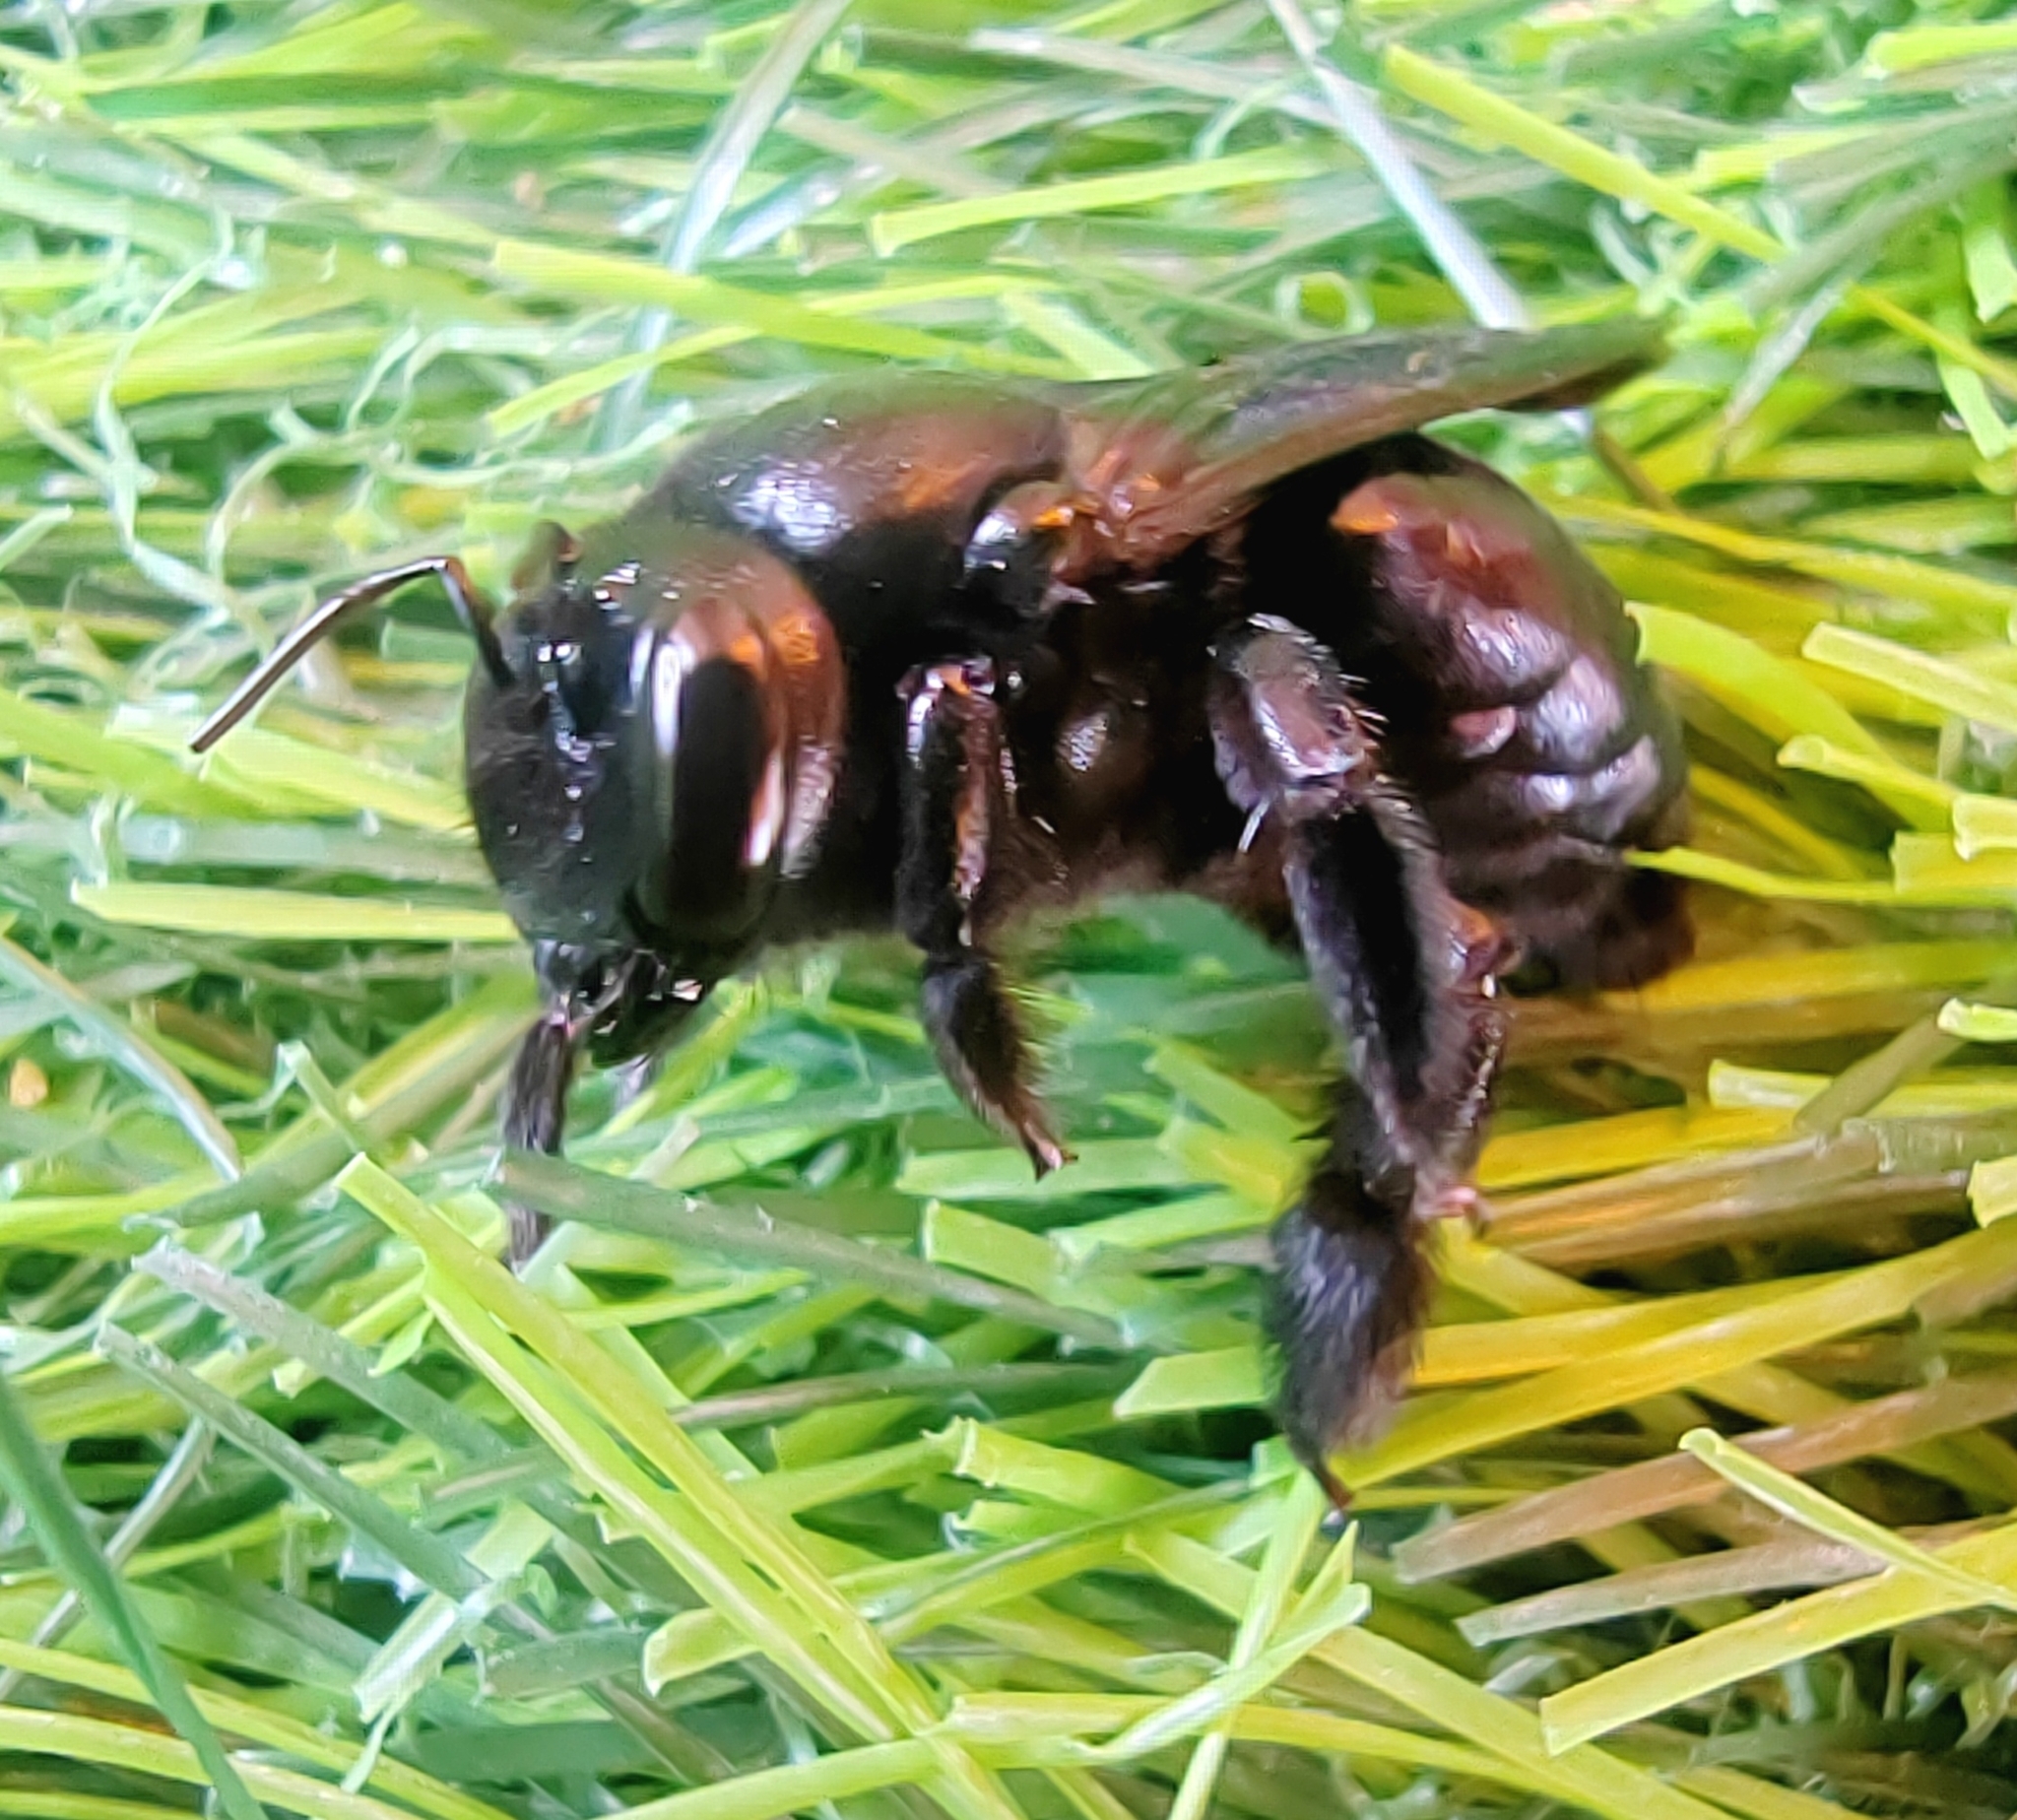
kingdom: Animalia
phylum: Arthropoda
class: Insecta
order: Hymenoptera
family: Apidae
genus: Xylocopa
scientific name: Xylocopa sulcatipes
